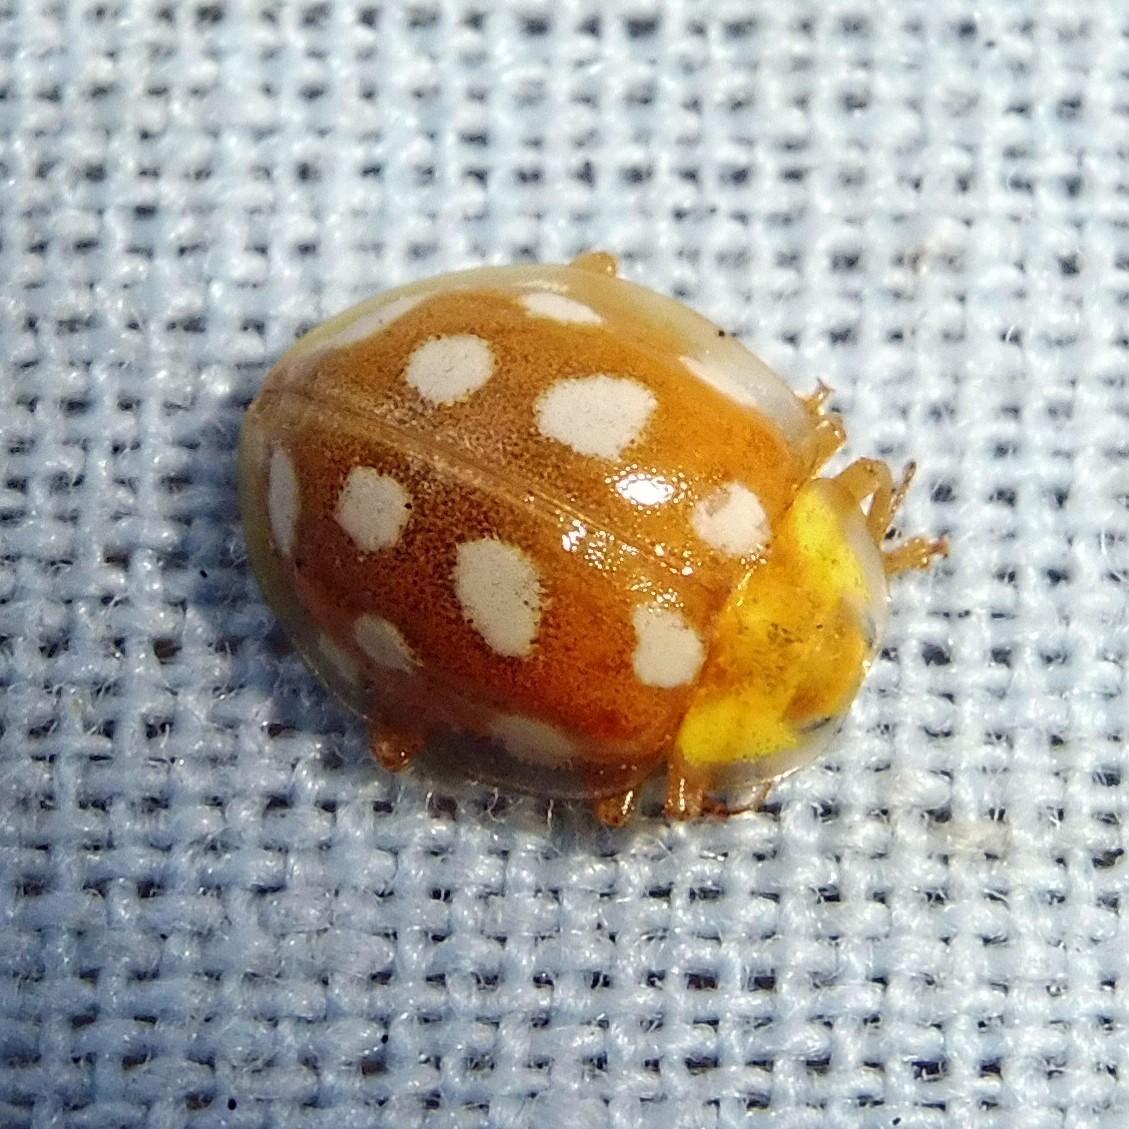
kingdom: Animalia
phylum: Arthropoda
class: Insecta
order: Coleoptera
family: Coccinellidae
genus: Halyzia
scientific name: Halyzia sedecimguttata
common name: Orange ladybird
